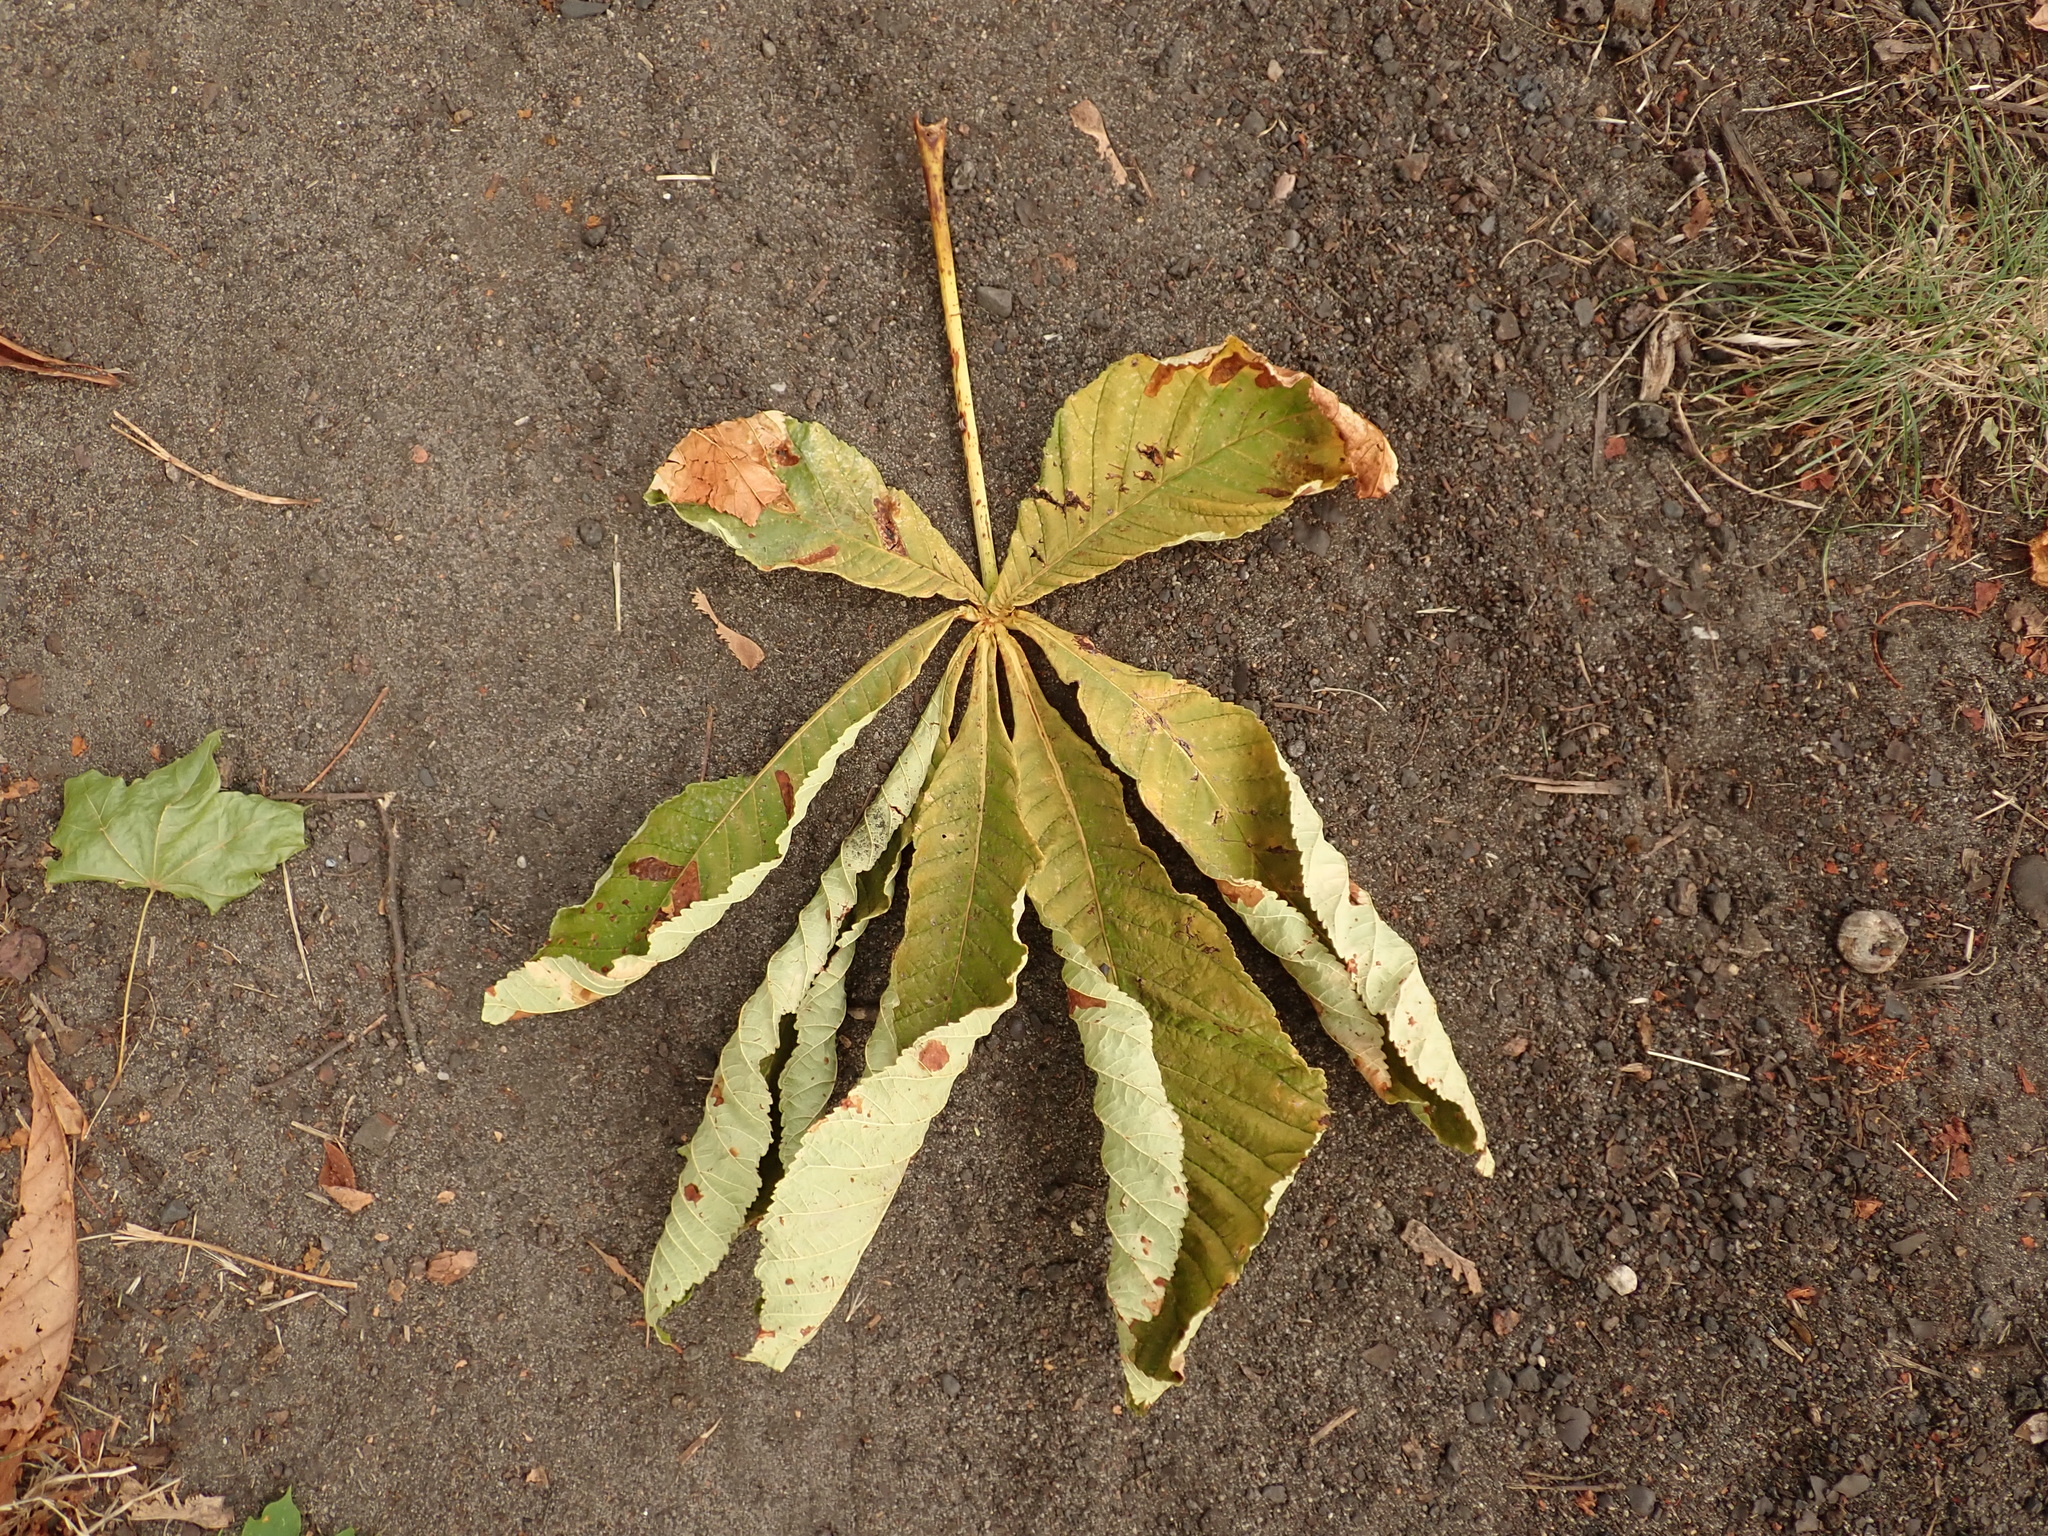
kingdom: Plantae
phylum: Tracheophyta
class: Magnoliopsida
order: Sapindales
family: Sapindaceae
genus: Aesculus
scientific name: Aesculus hippocastanum
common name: Horse-chestnut
